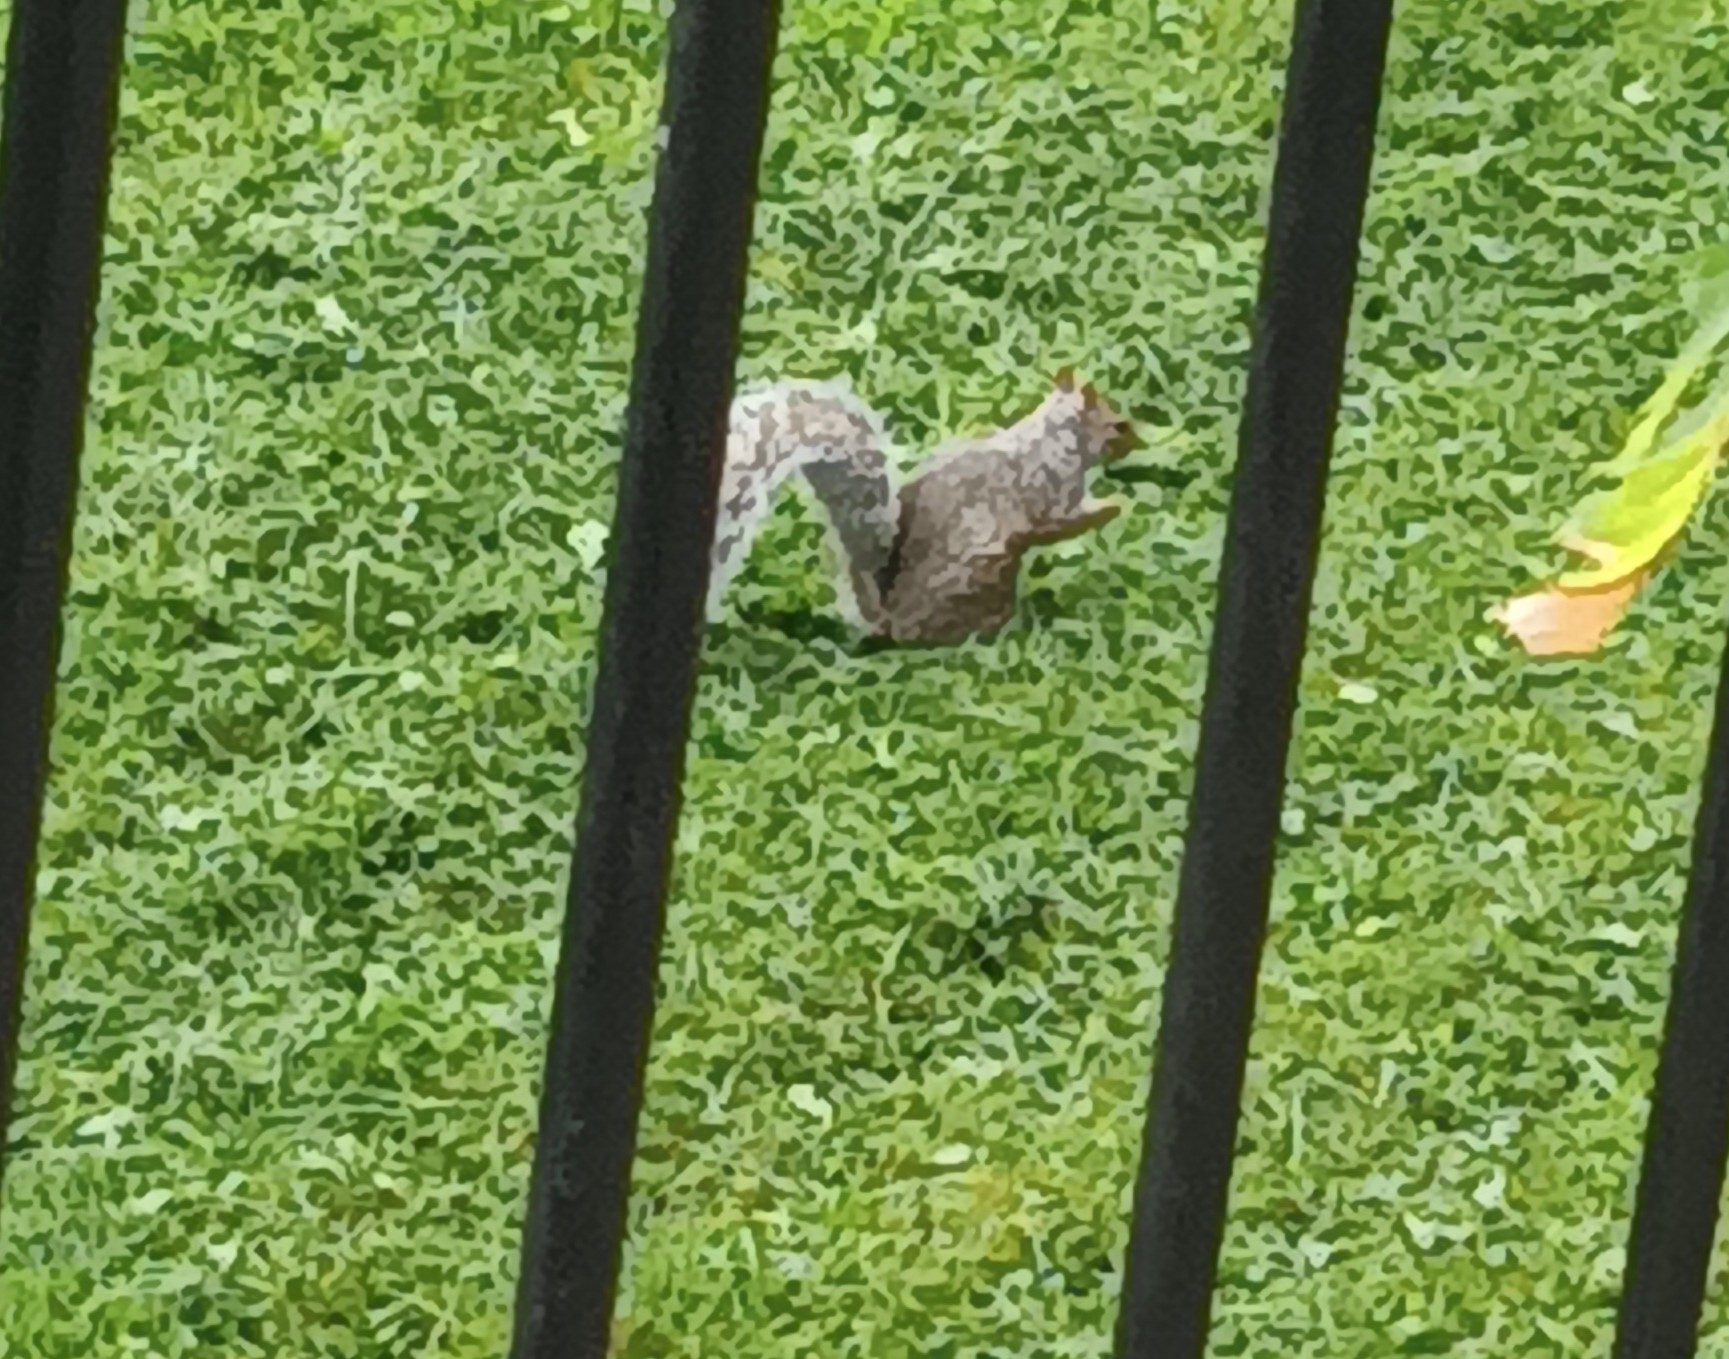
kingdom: Animalia
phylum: Chordata
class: Mammalia
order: Rodentia
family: Sciuridae
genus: Sciurus
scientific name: Sciurus carolinensis
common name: Eastern gray squirrel
